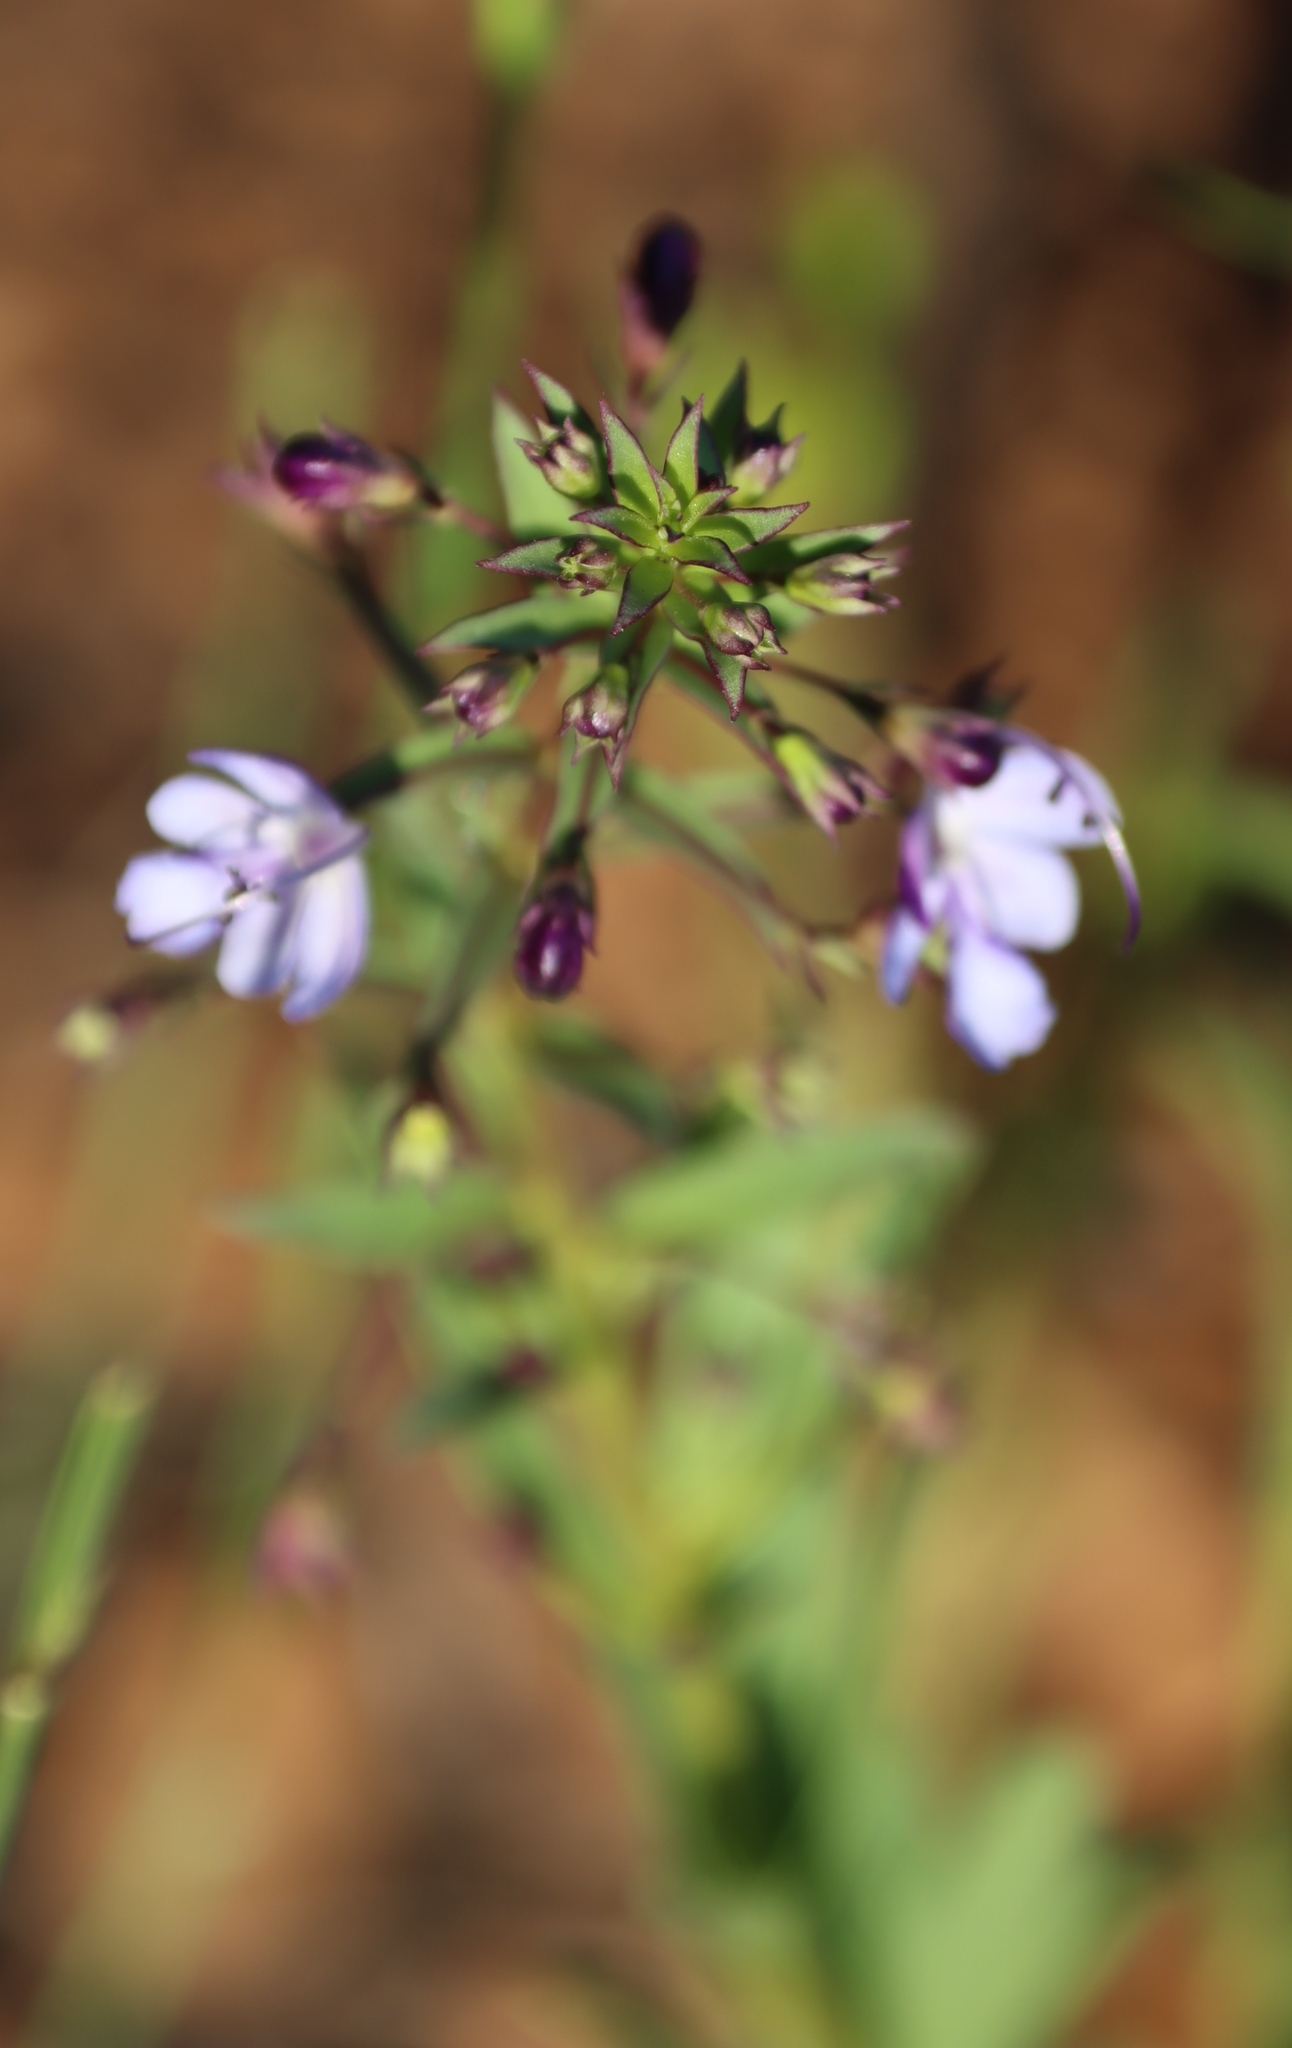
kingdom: Plantae
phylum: Tracheophyta
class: Magnoliopsida
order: Lamiales
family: Lamiaceae
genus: Rotheca
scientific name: Rotheca hirsuta
